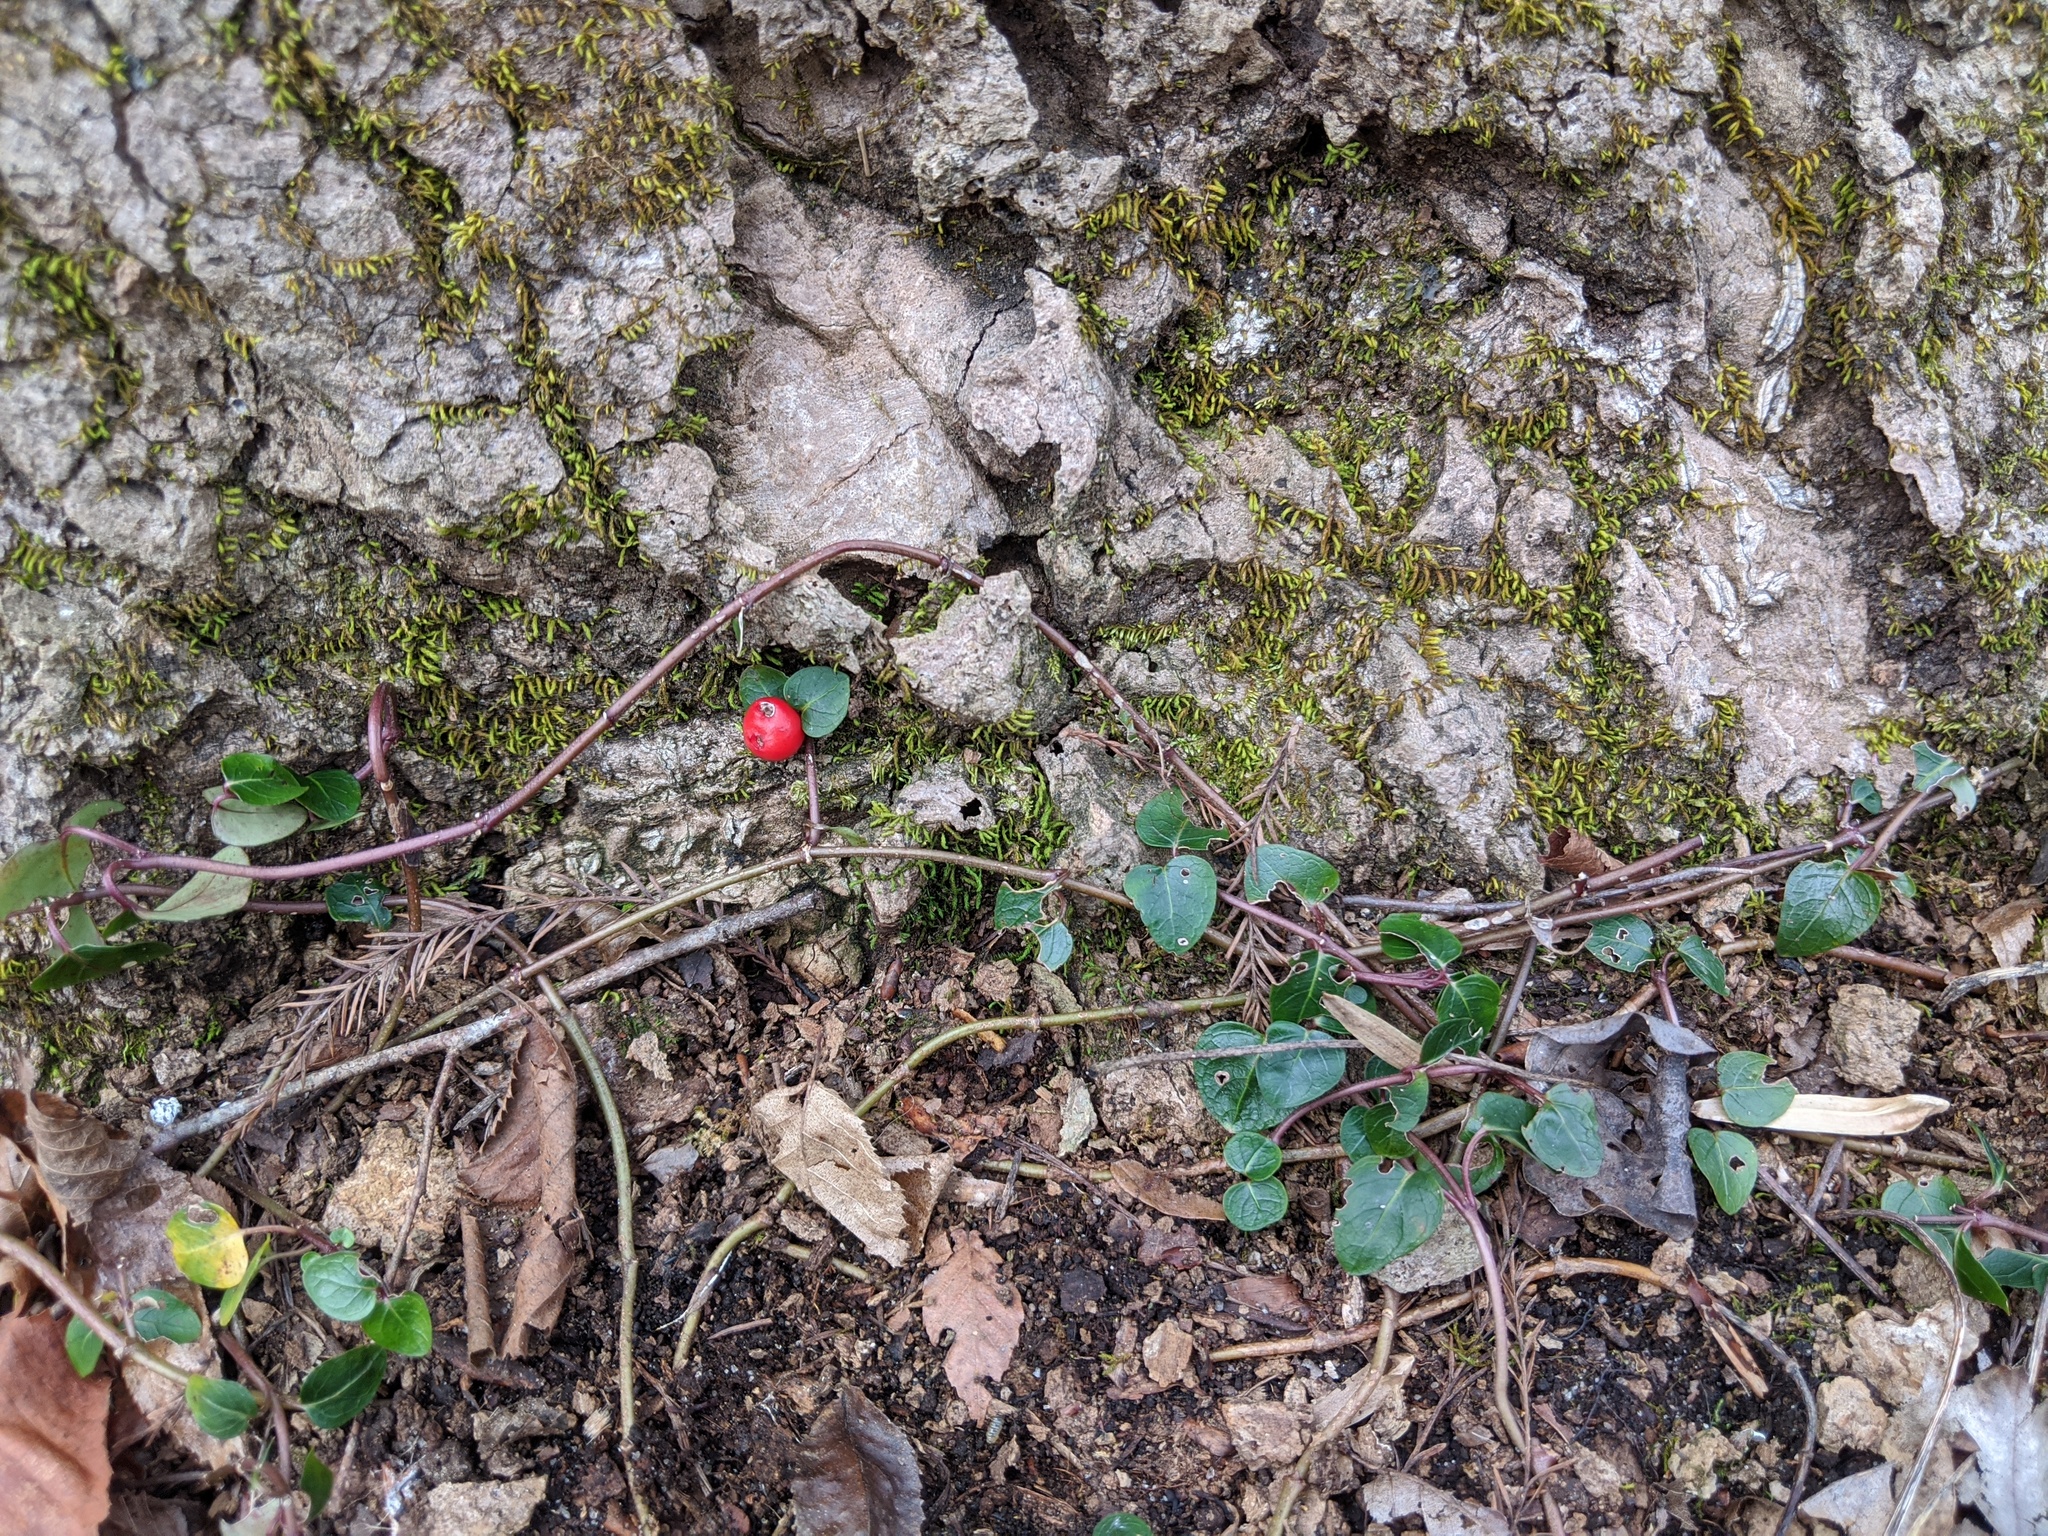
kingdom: Plantae
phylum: Tracheophyta
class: Magnoliopsida
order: Gentianales
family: Rubiaceae
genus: Mitchella
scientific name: Mitchella repens
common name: Partridge-berry
